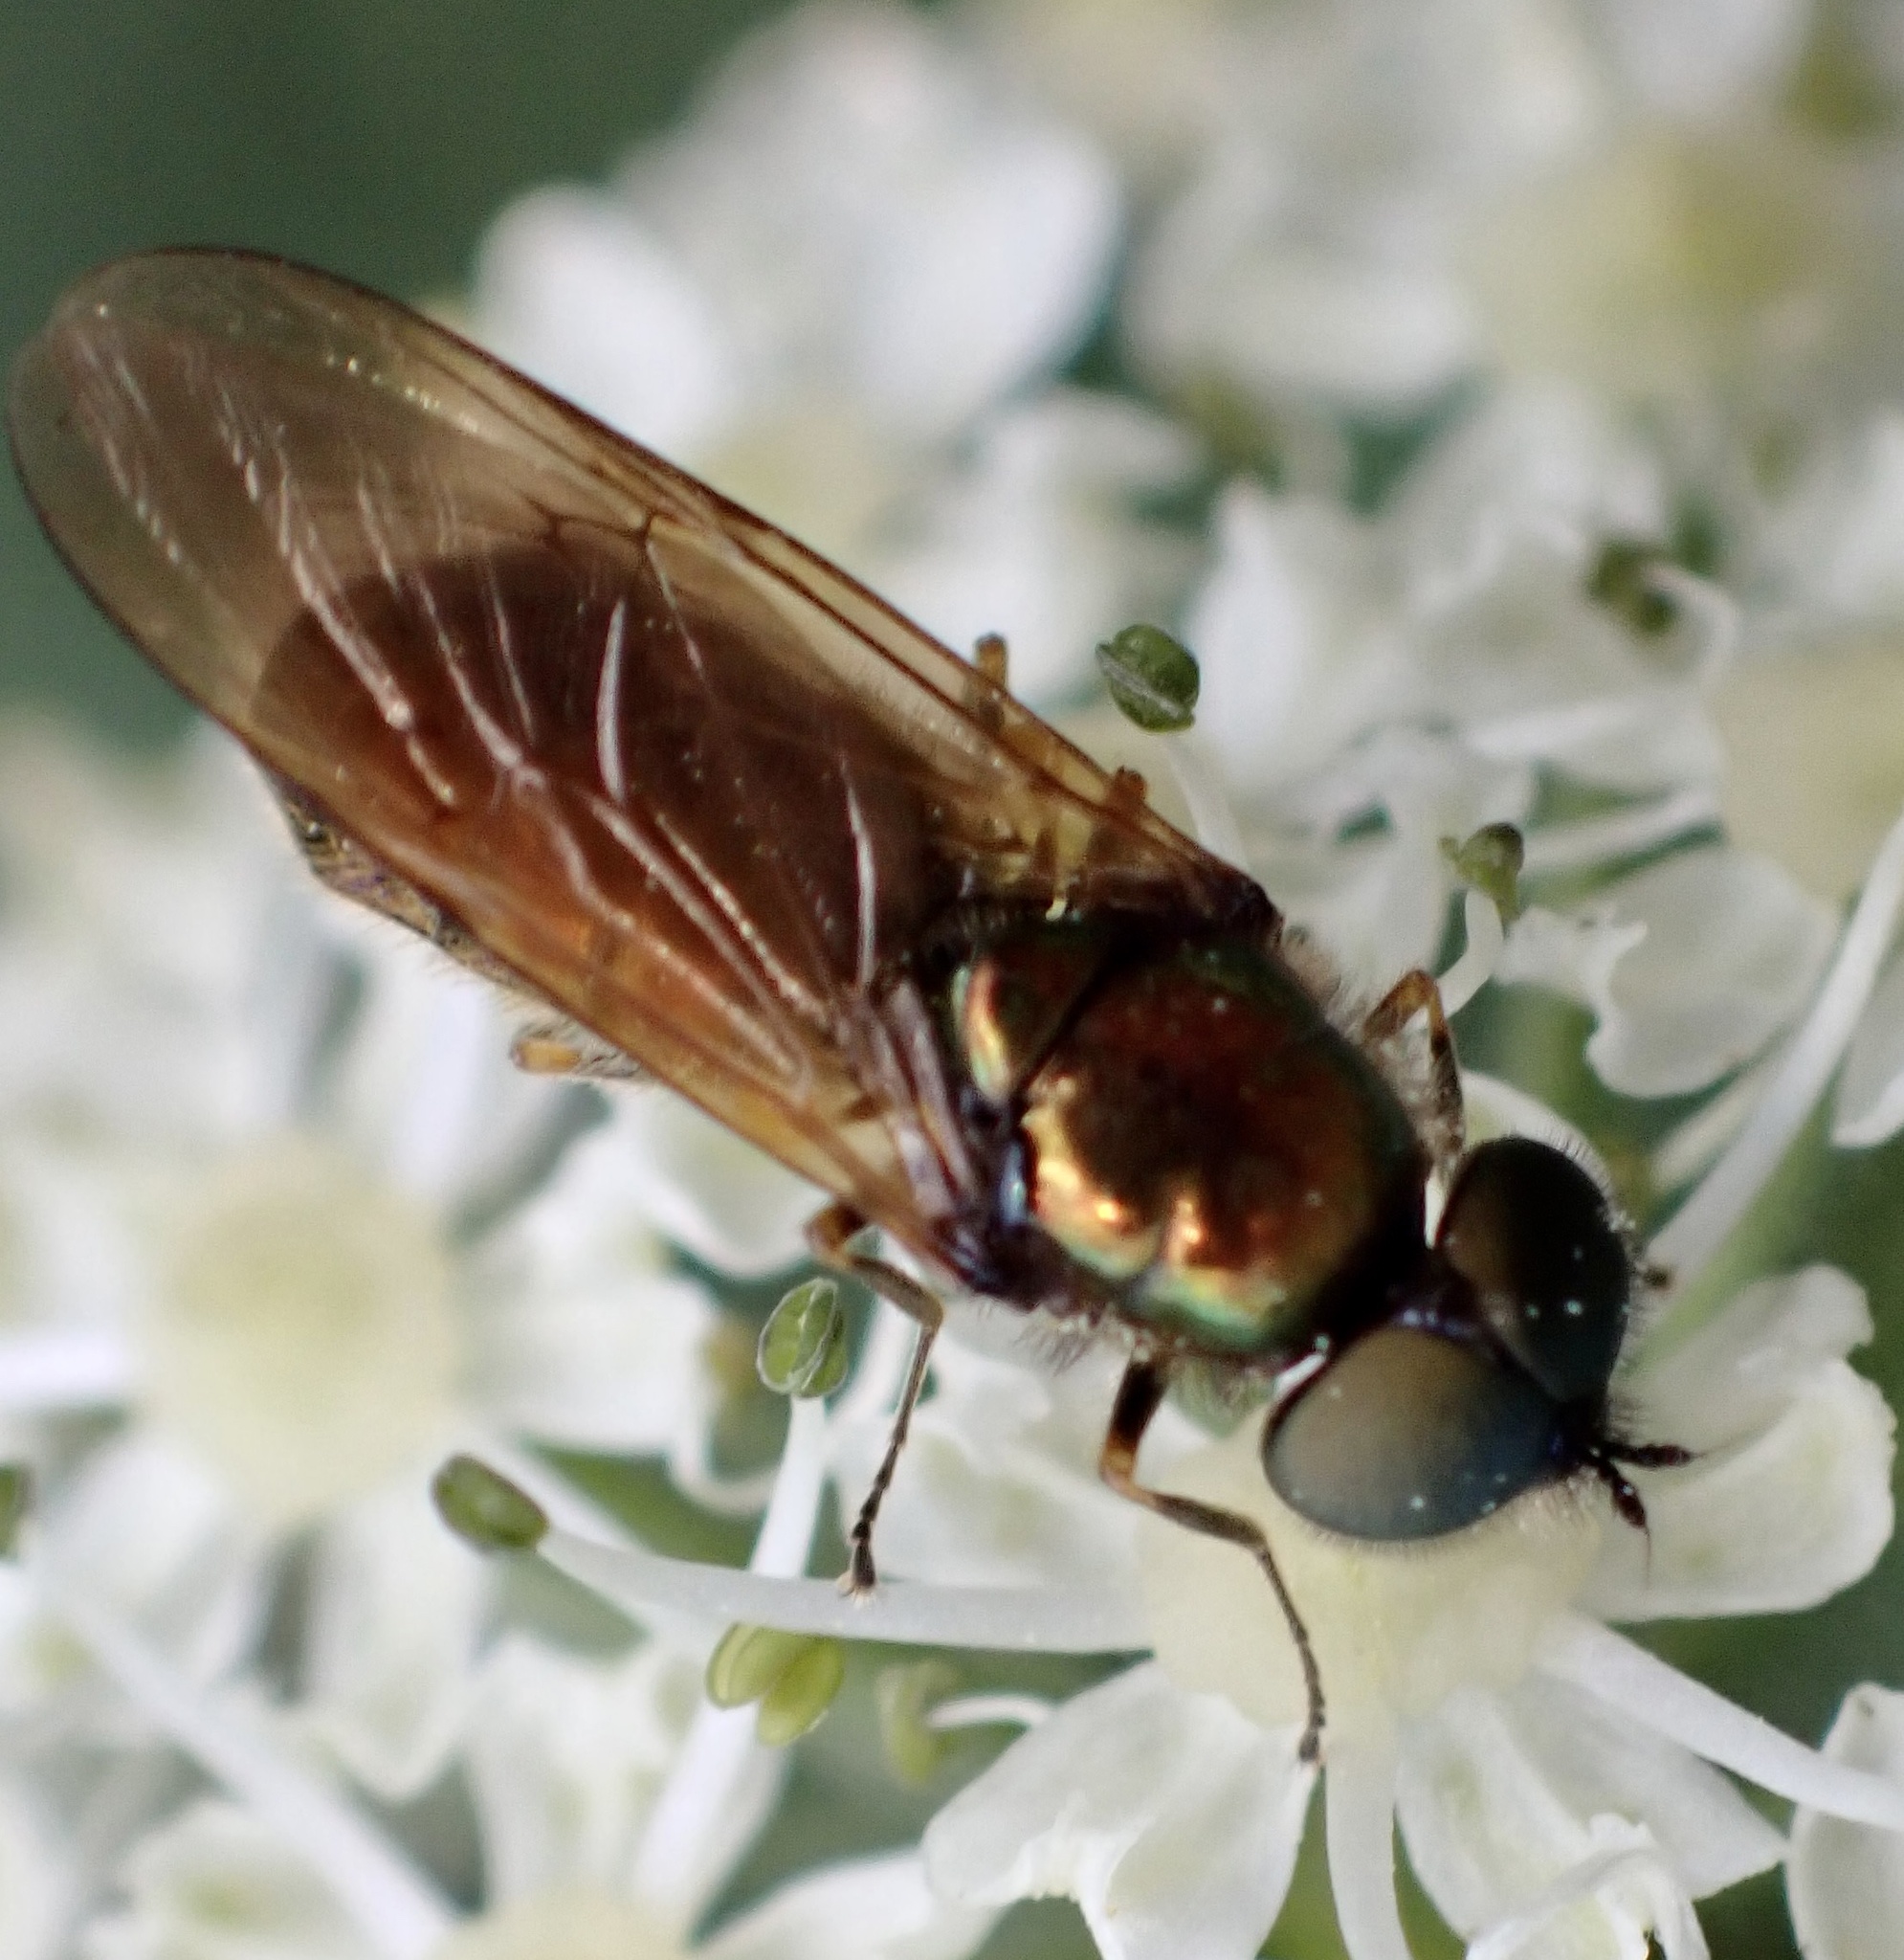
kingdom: Animalia
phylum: Arthropoda
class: Insecta
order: Diptera
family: Stratiomyidae
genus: Chloromyia
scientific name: Chloromyia formosa
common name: Soldier fly
